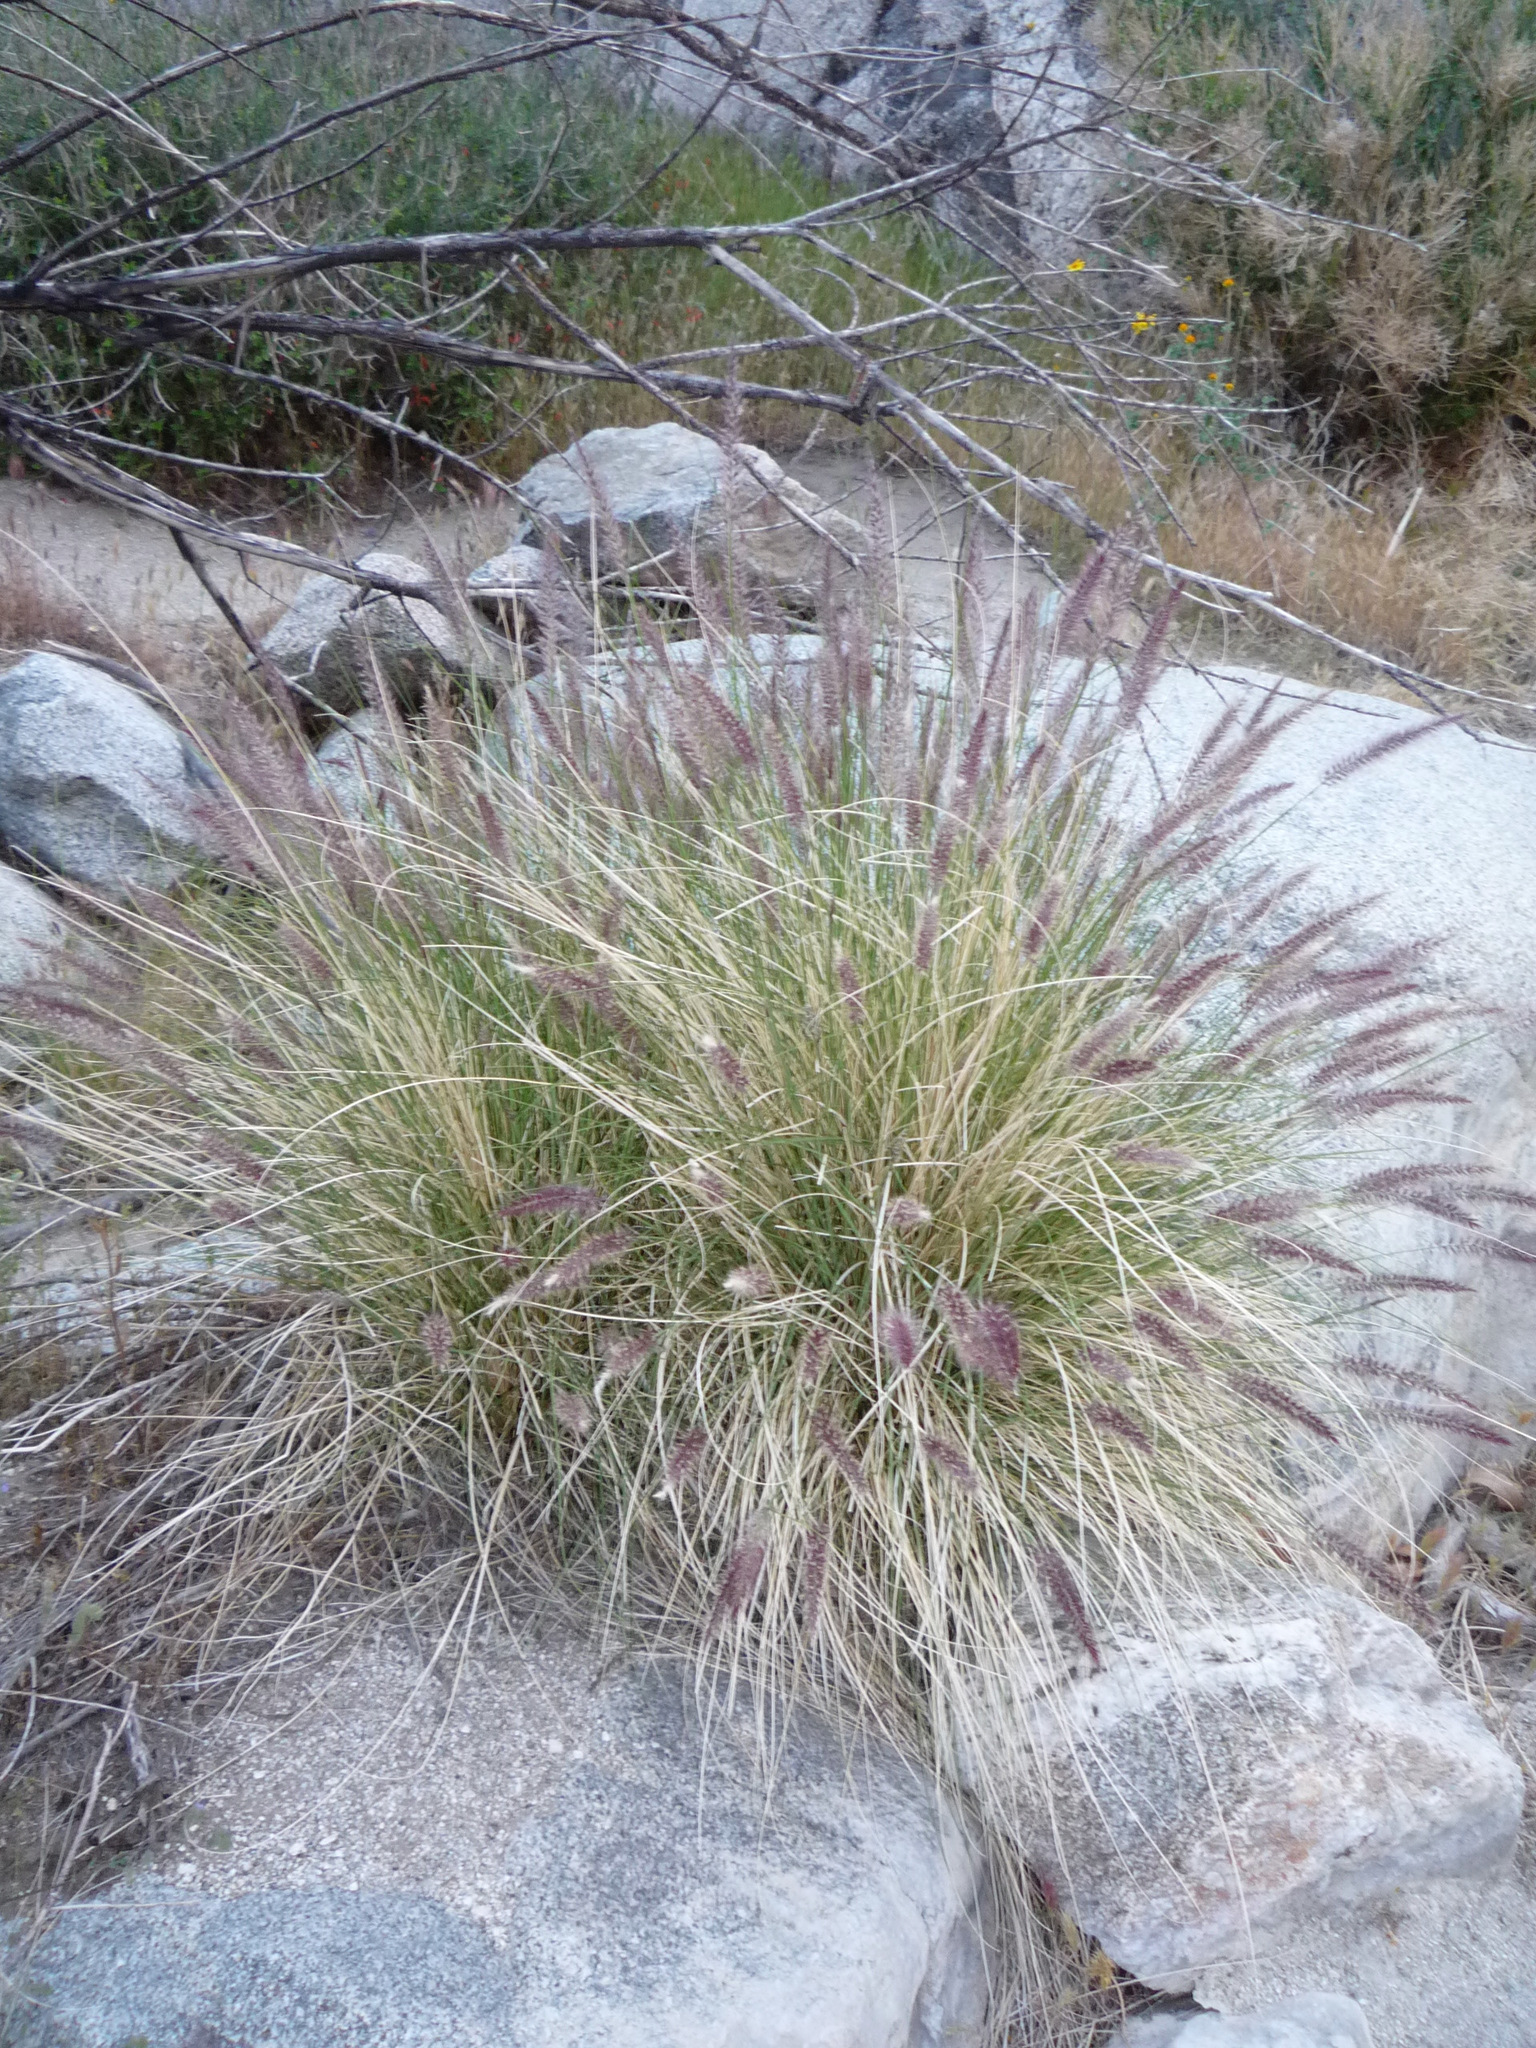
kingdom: Plantae
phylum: Tracheophyta
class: Liliopsida
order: Poales
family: Poaceae
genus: Cenchrus
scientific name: Cenchrus setaceus
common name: Crimson fountaingrass
